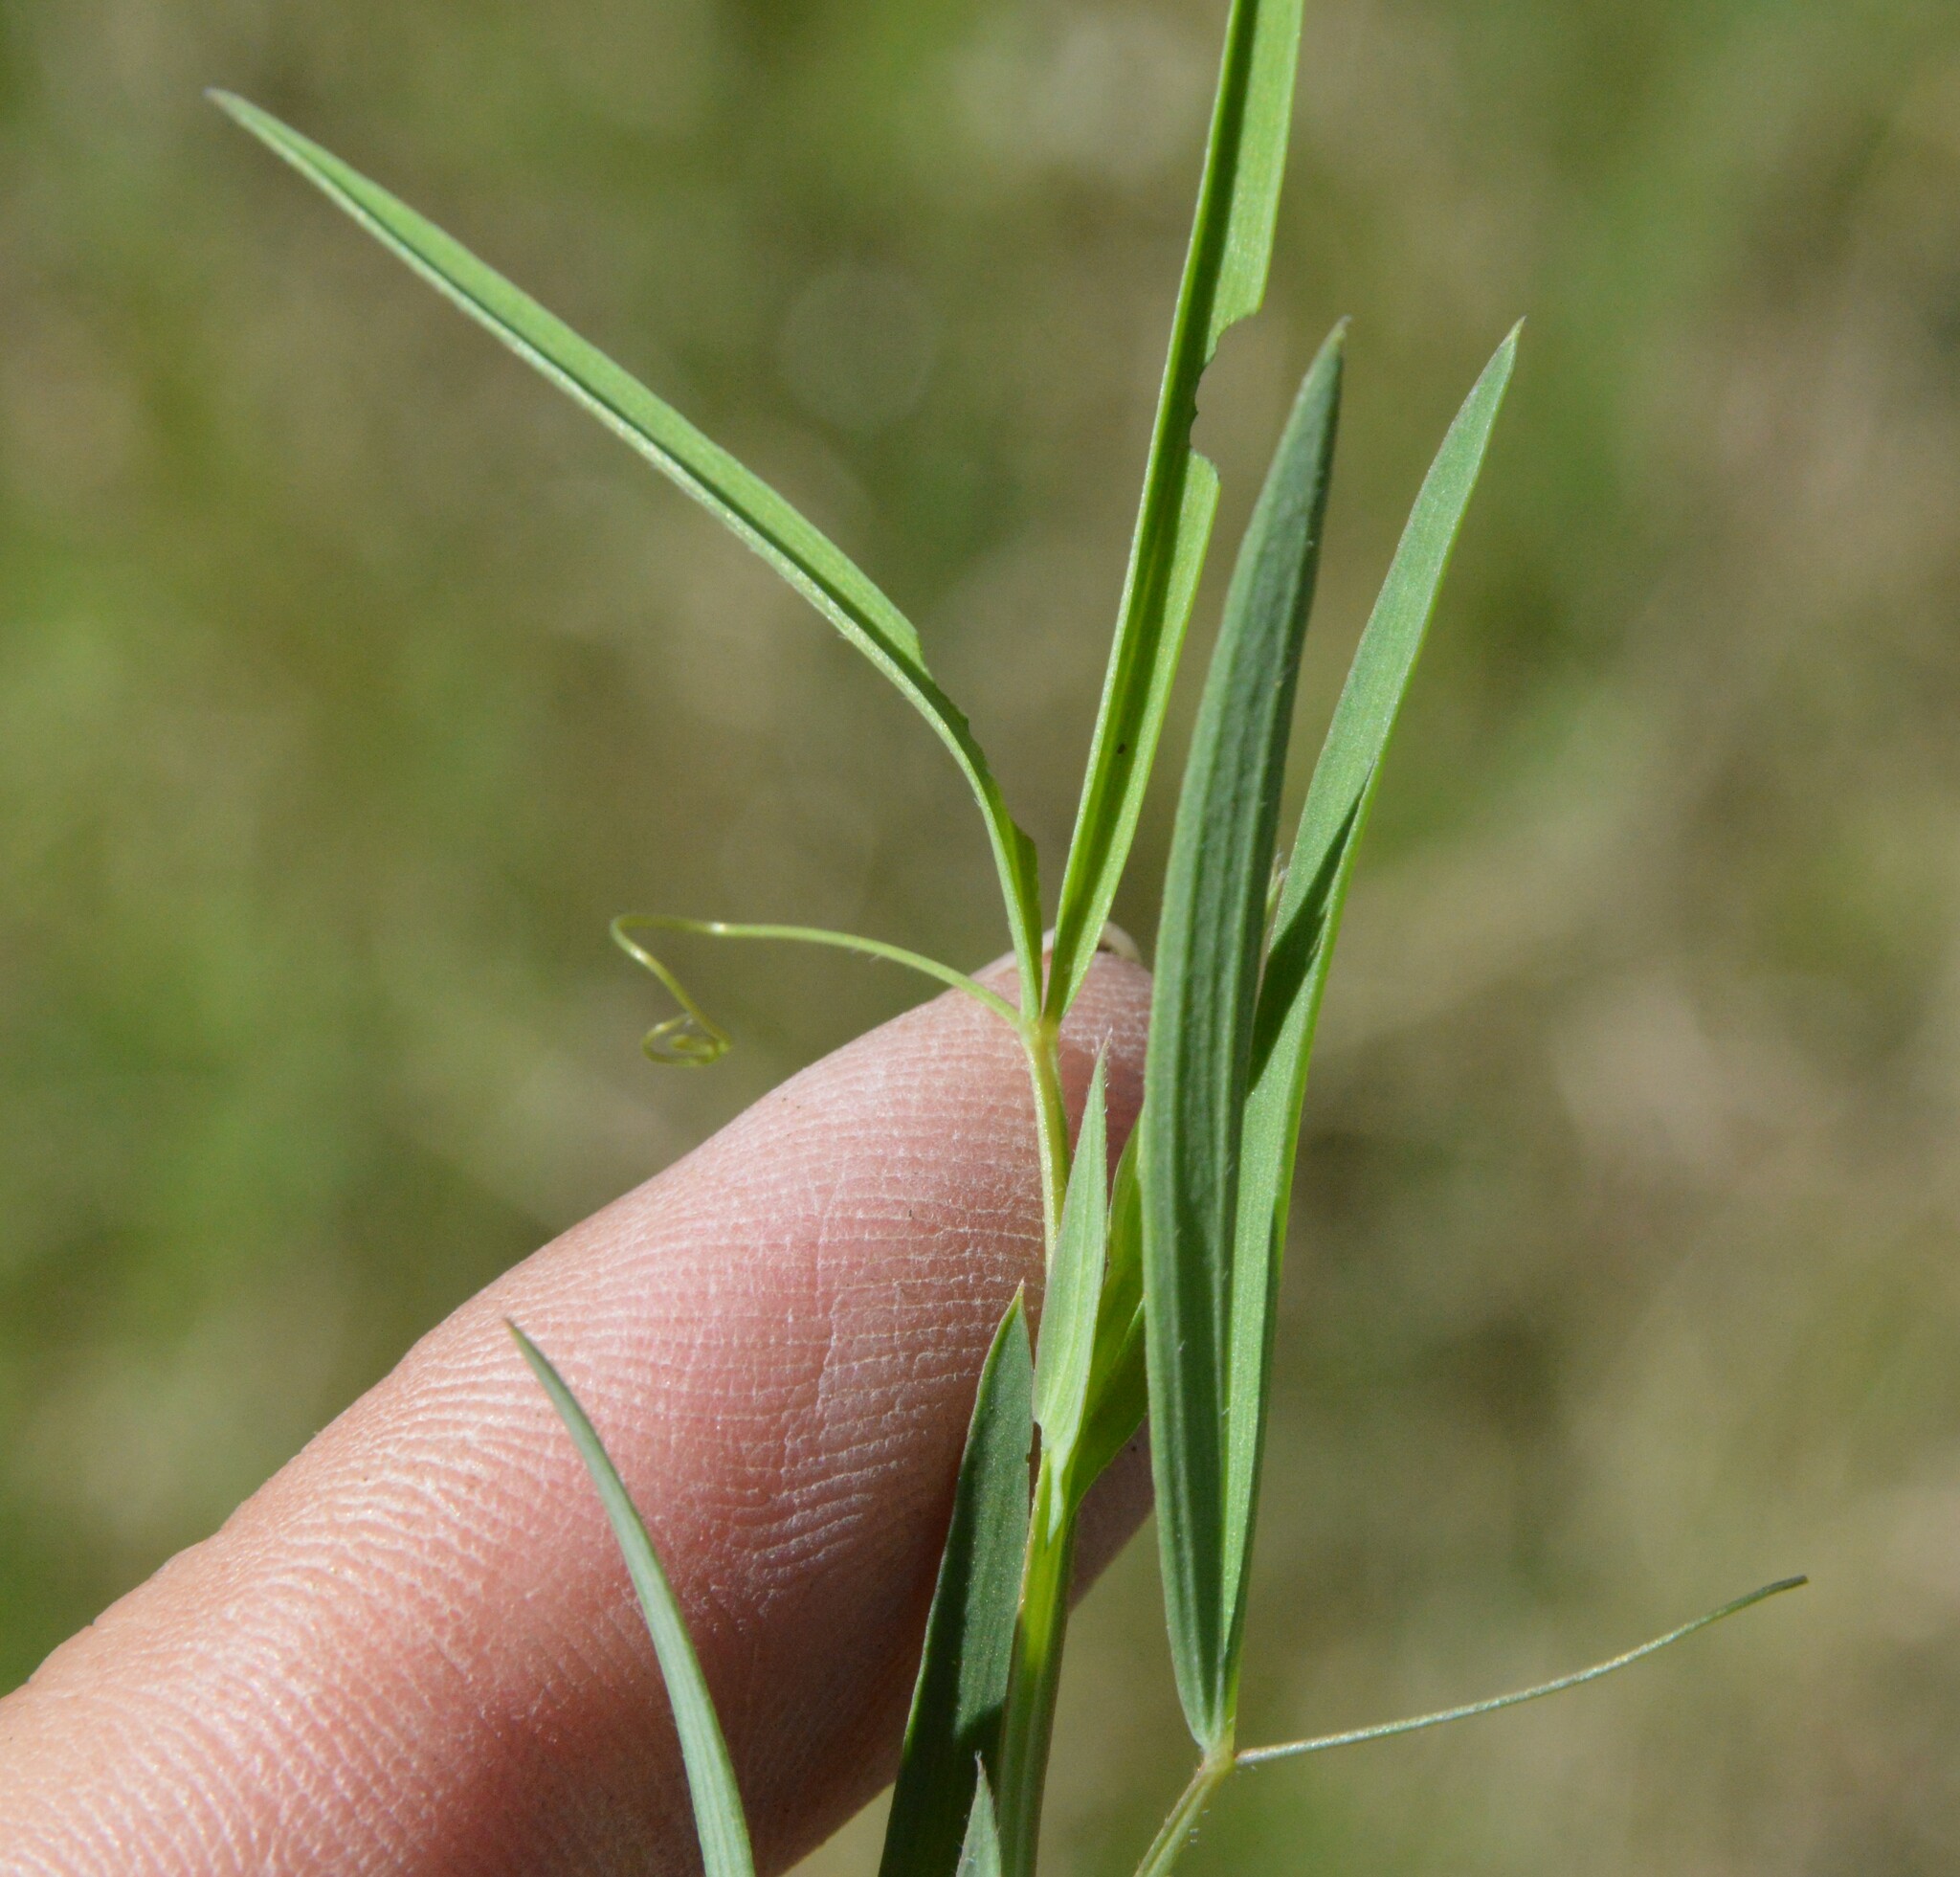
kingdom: Plantae
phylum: Tracheophyta
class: Magnoliopsida
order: Fabales
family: Fabaceae
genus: Lathyrus
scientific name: Lathyrus pusillus
